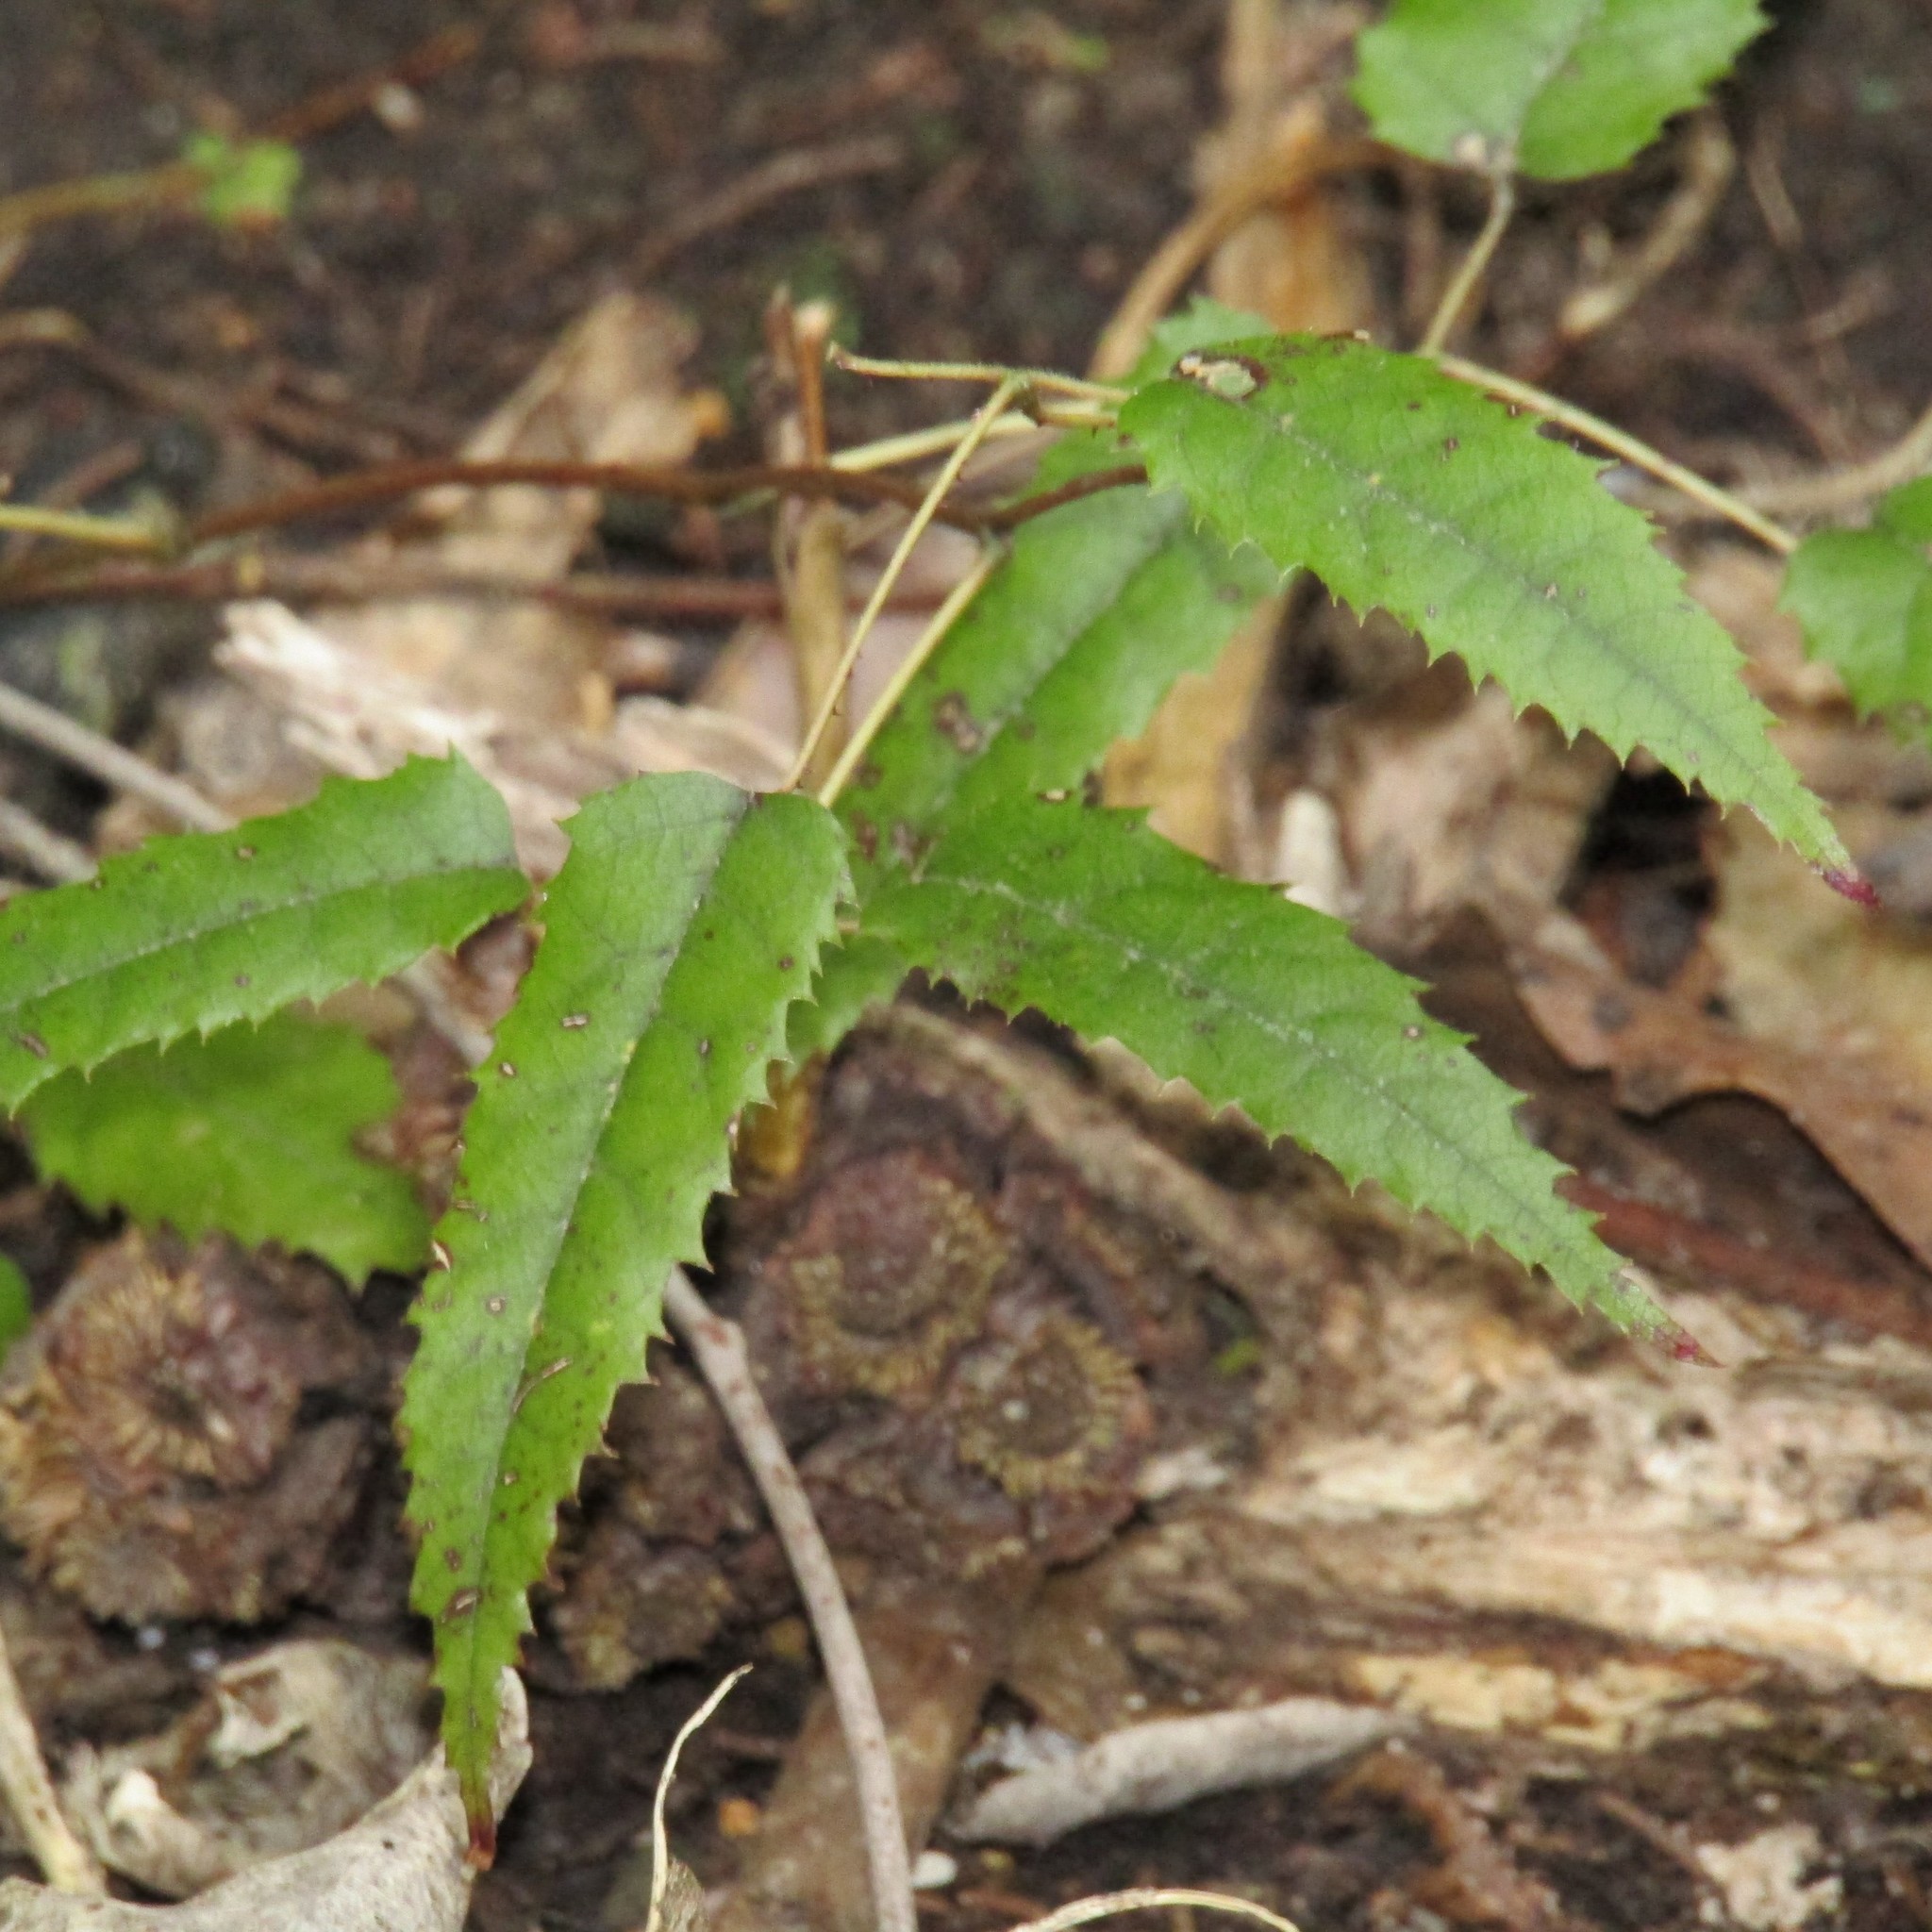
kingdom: Plantae
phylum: Tracheophyta
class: Magnoliopsida
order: Rosales
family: Rosaceae
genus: Rubus
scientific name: Rubus cissoides
